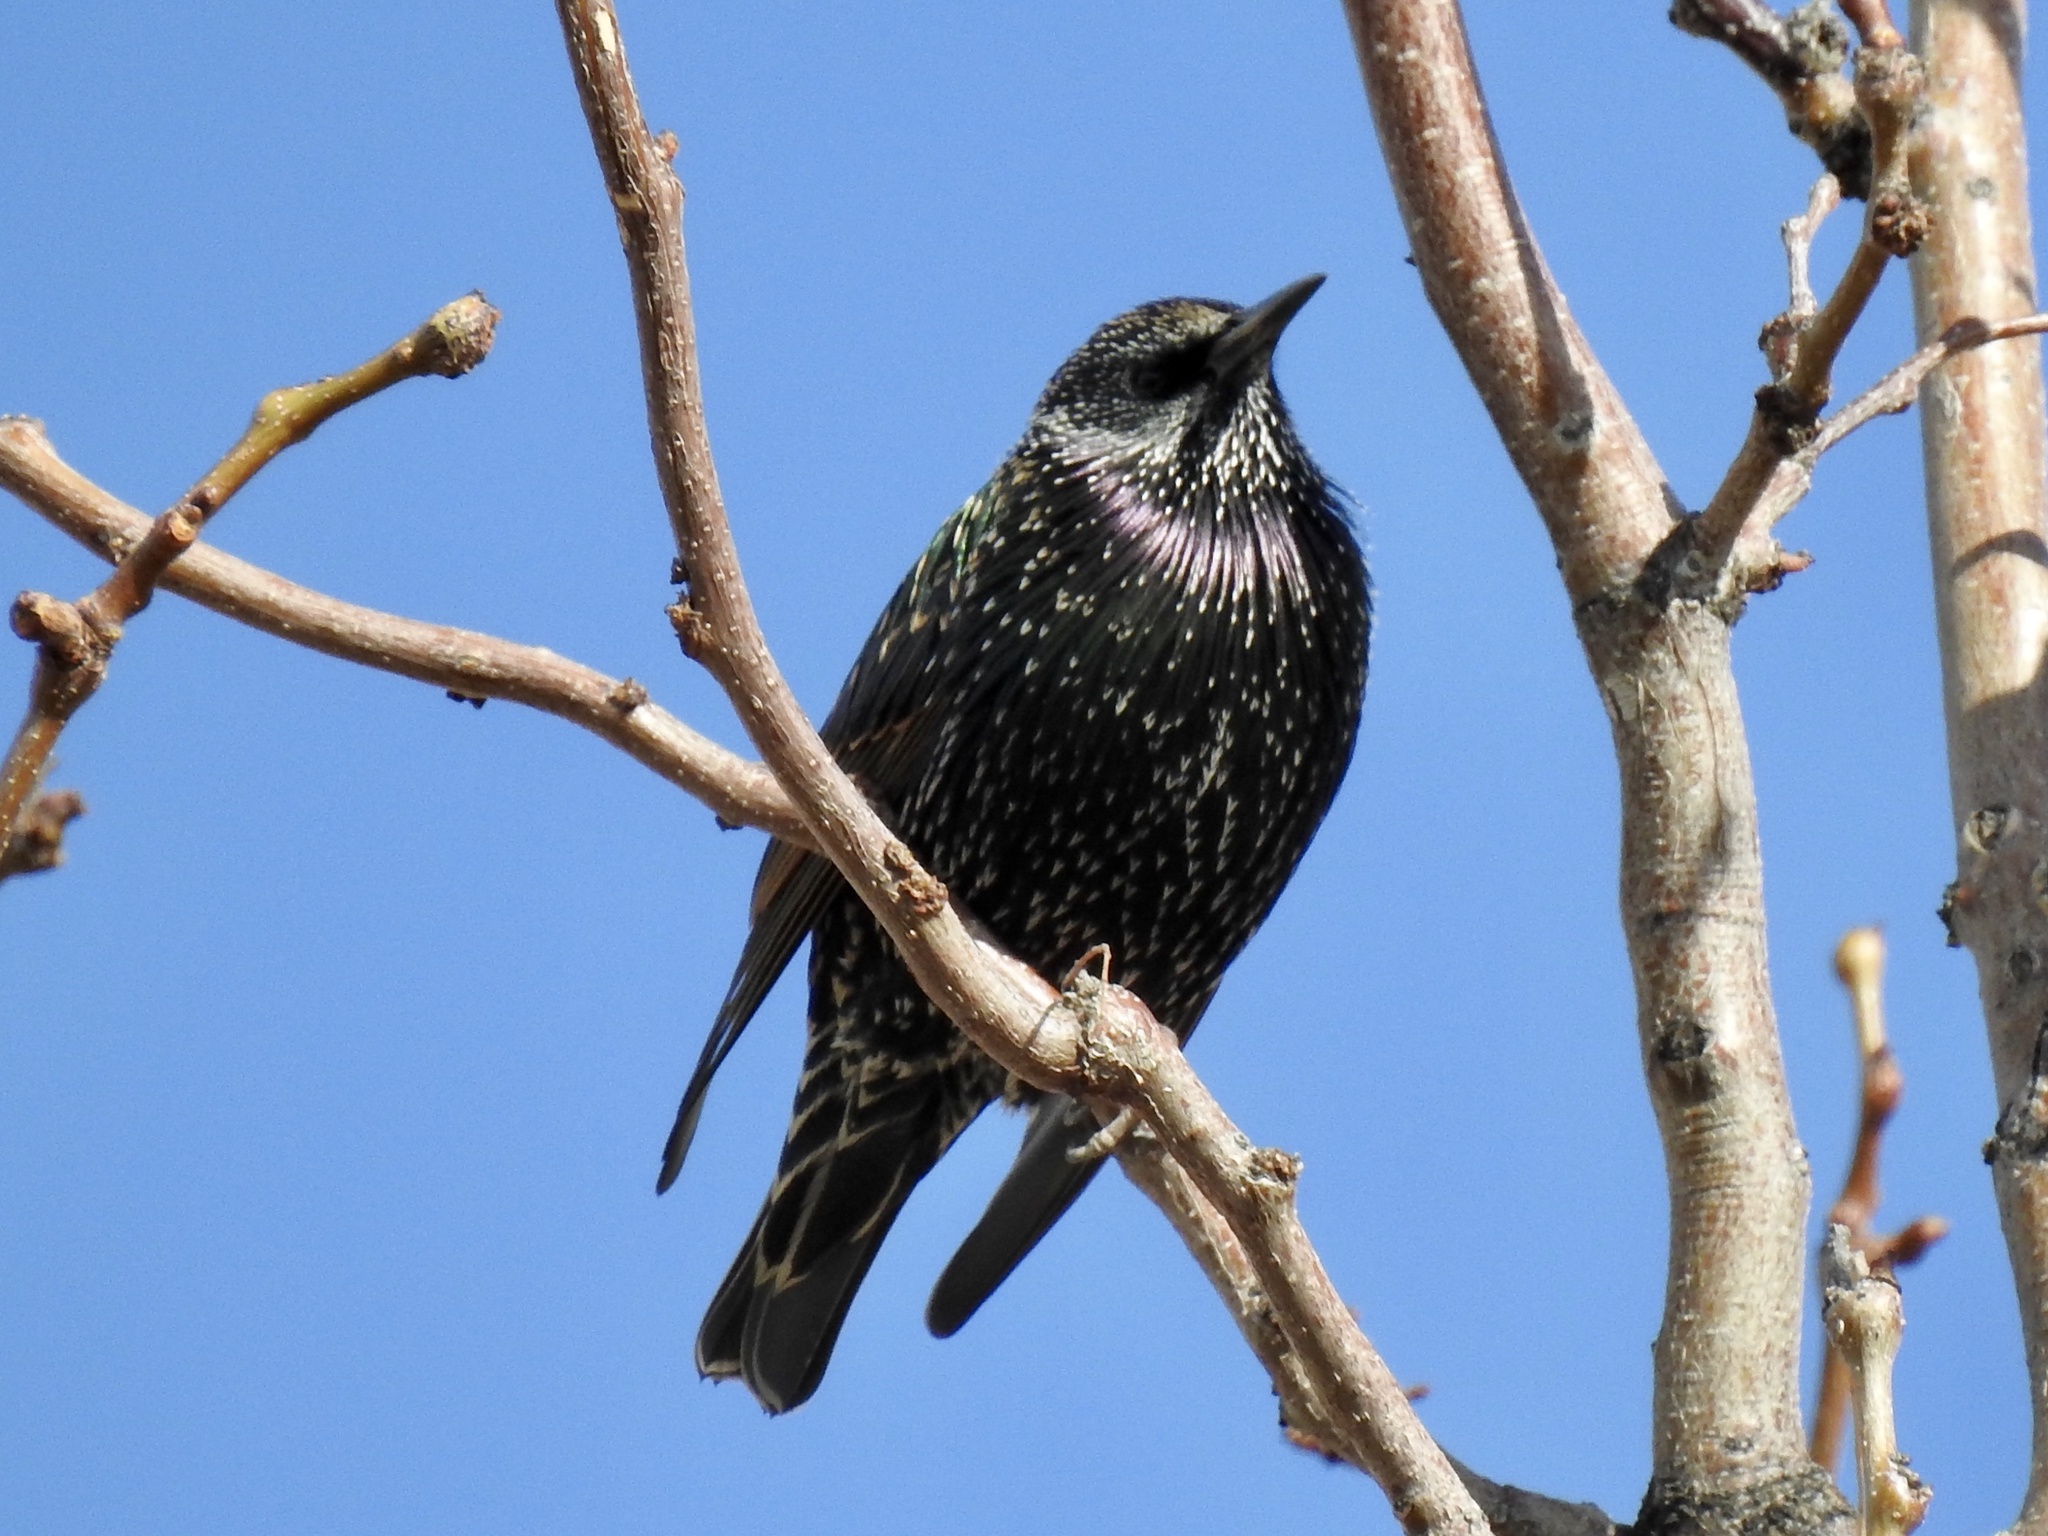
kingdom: Animalia
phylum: Chordata
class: Aves
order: Passeriformes
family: Sturnidae
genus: Sturnus
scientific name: Sturnus vulgaris
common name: Common starling
